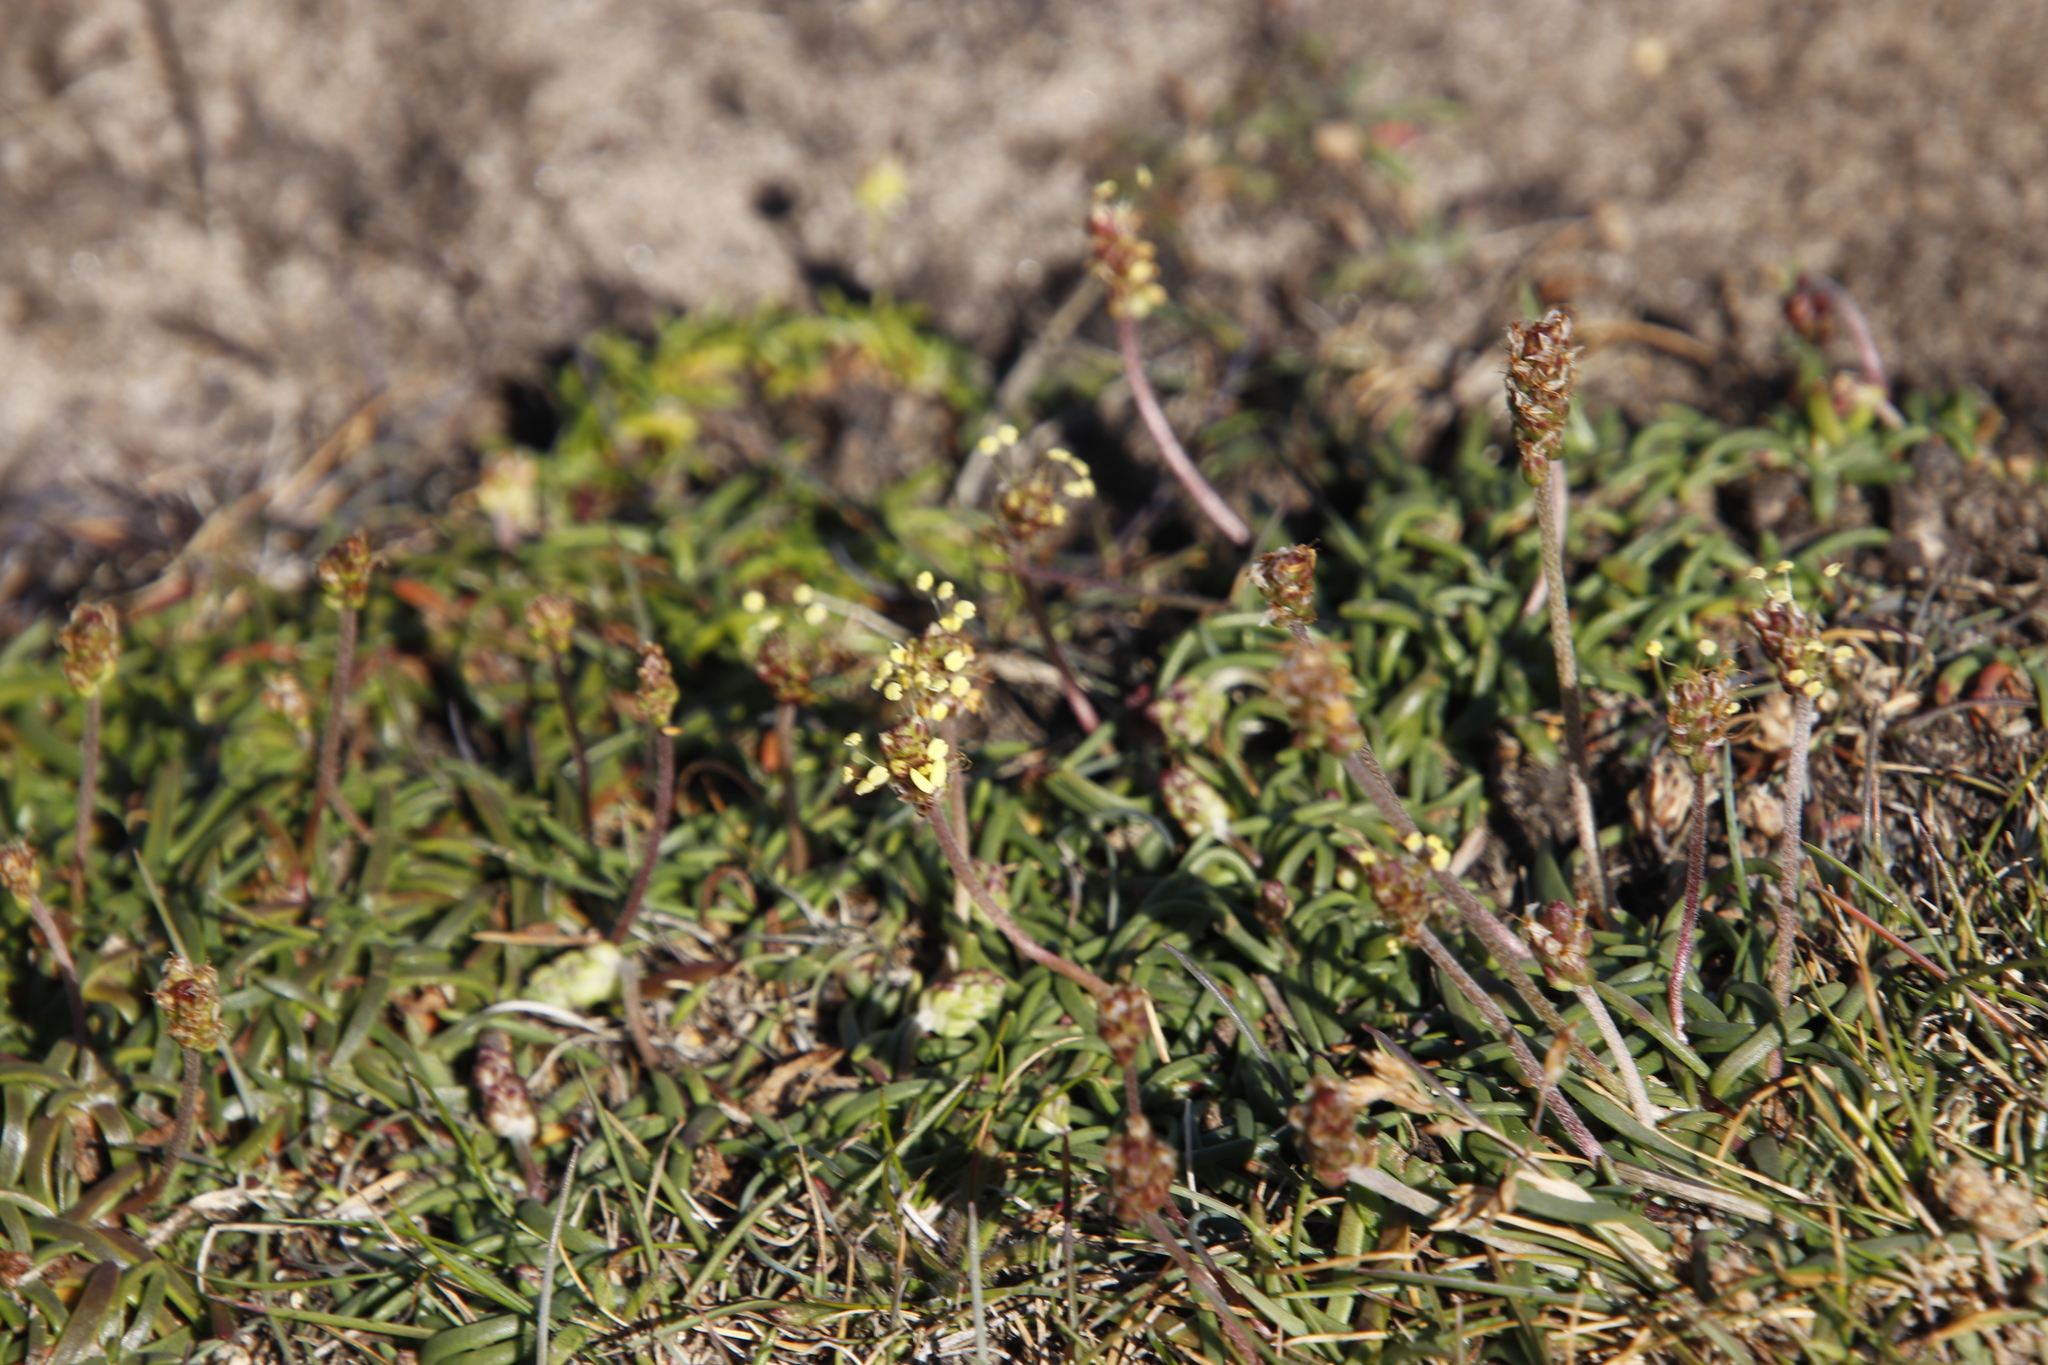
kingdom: Plantae
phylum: Tracheophyta
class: Magnoliopsida
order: Lamiales
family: Plantaginaceae
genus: Plantago
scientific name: Plantago maritima
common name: Sea plantain
